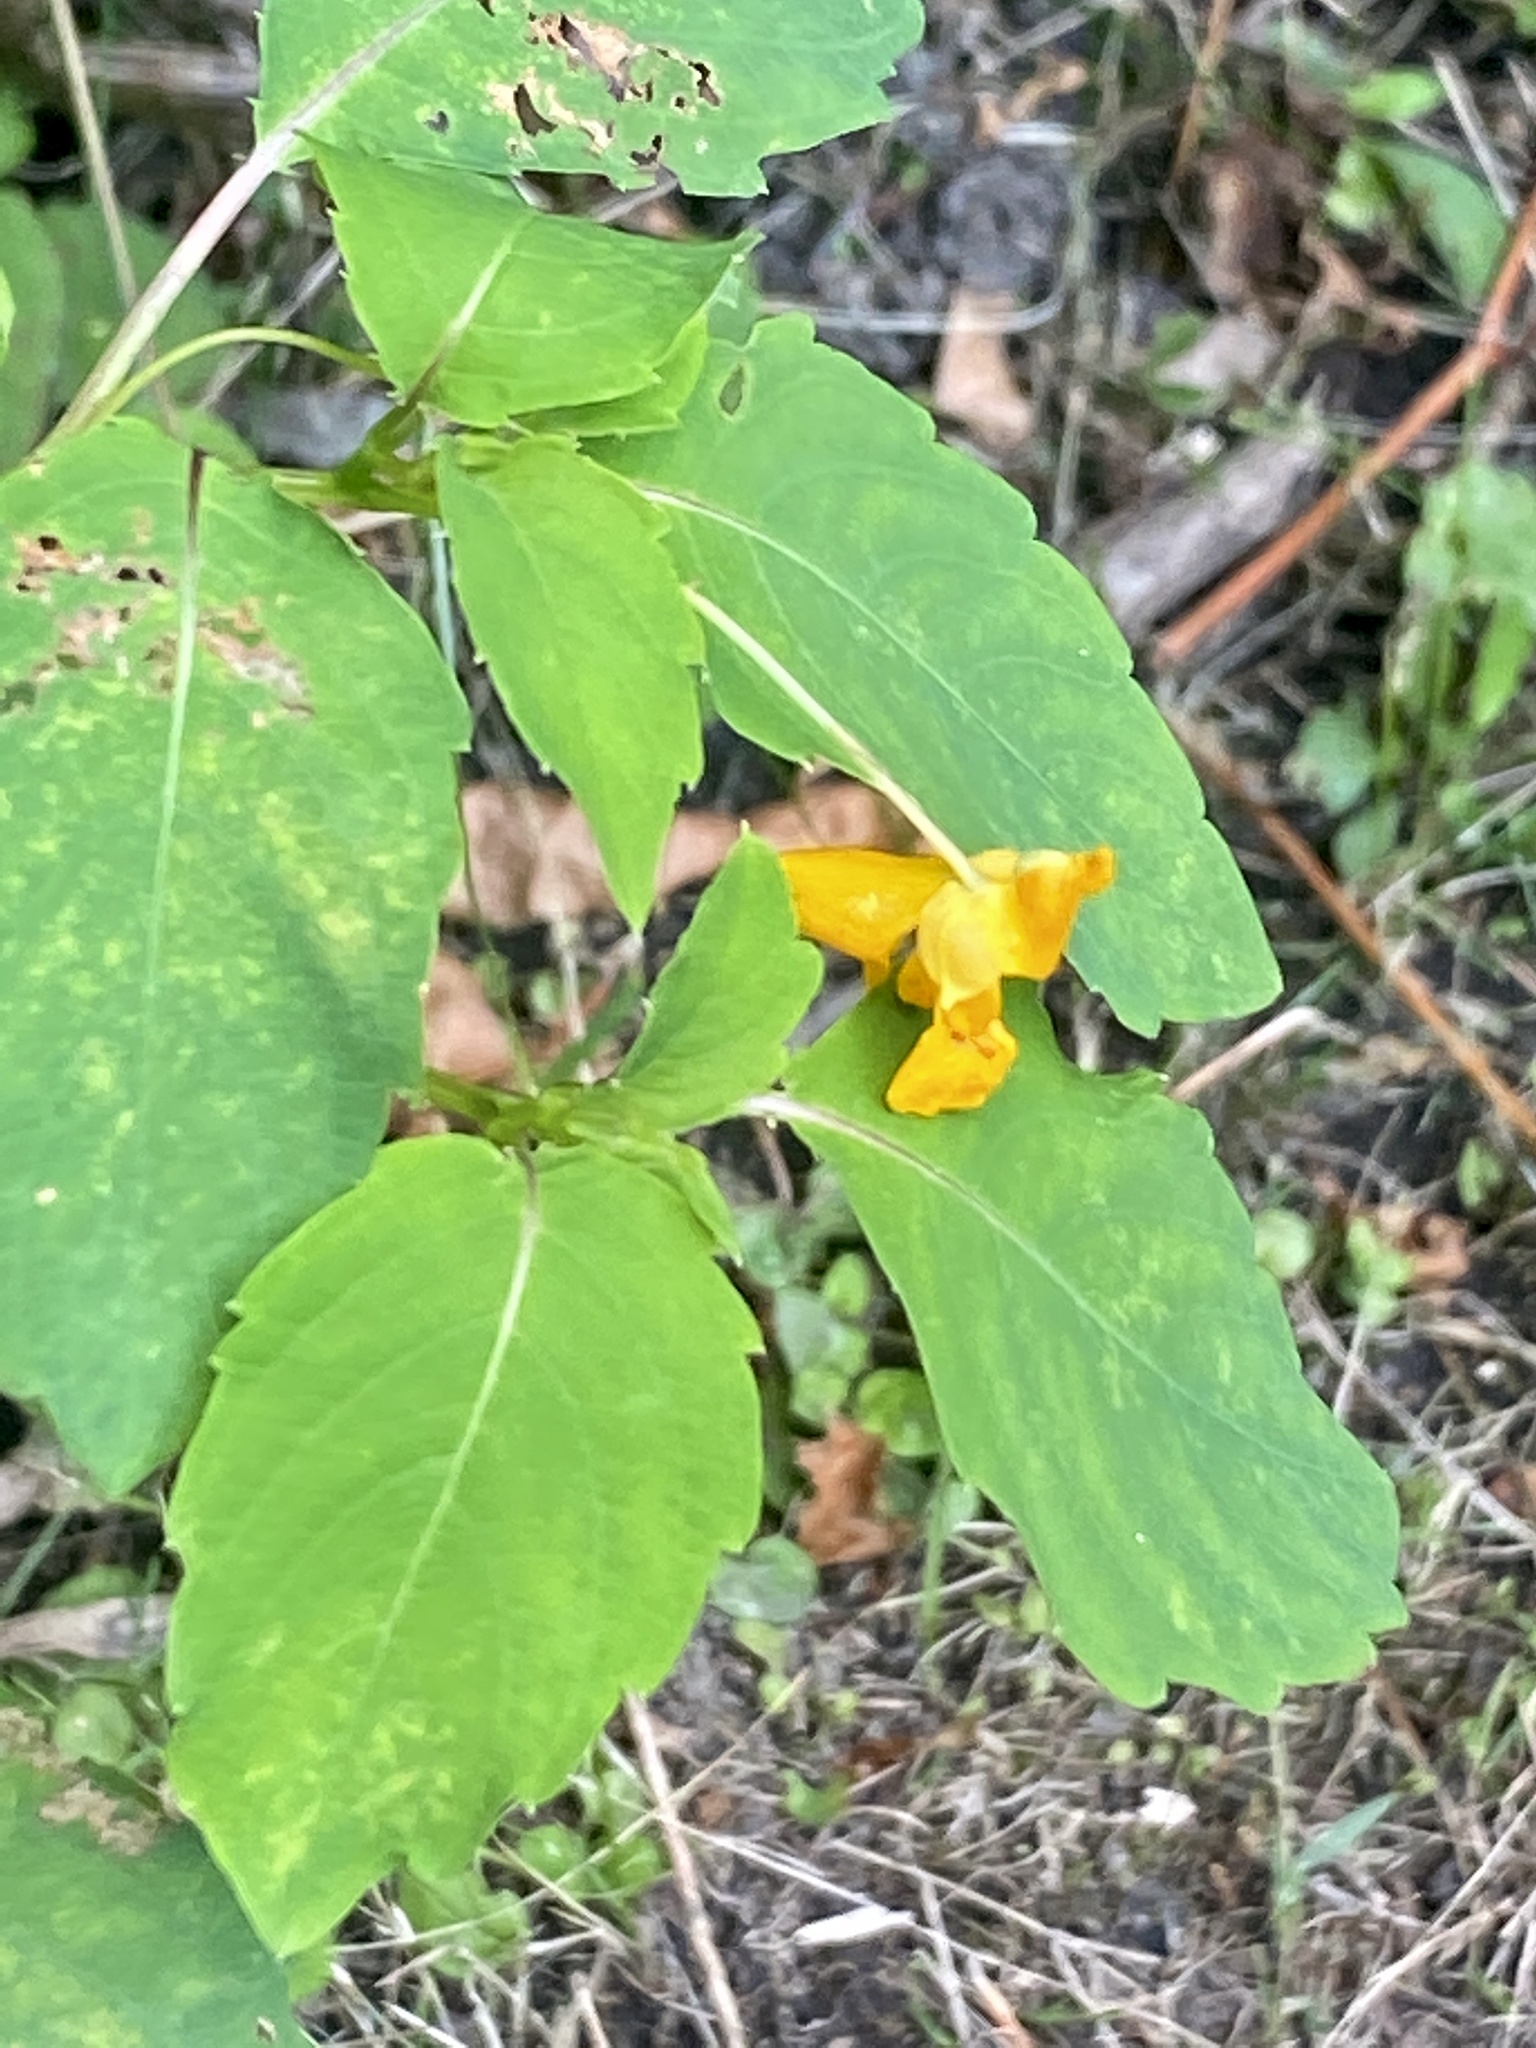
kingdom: Plantae
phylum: Tracheophyta
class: Magnoliopsida
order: Ericales
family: Balsaminaceae
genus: Impatiens
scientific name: Impatiens capensis
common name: Orange balsam
